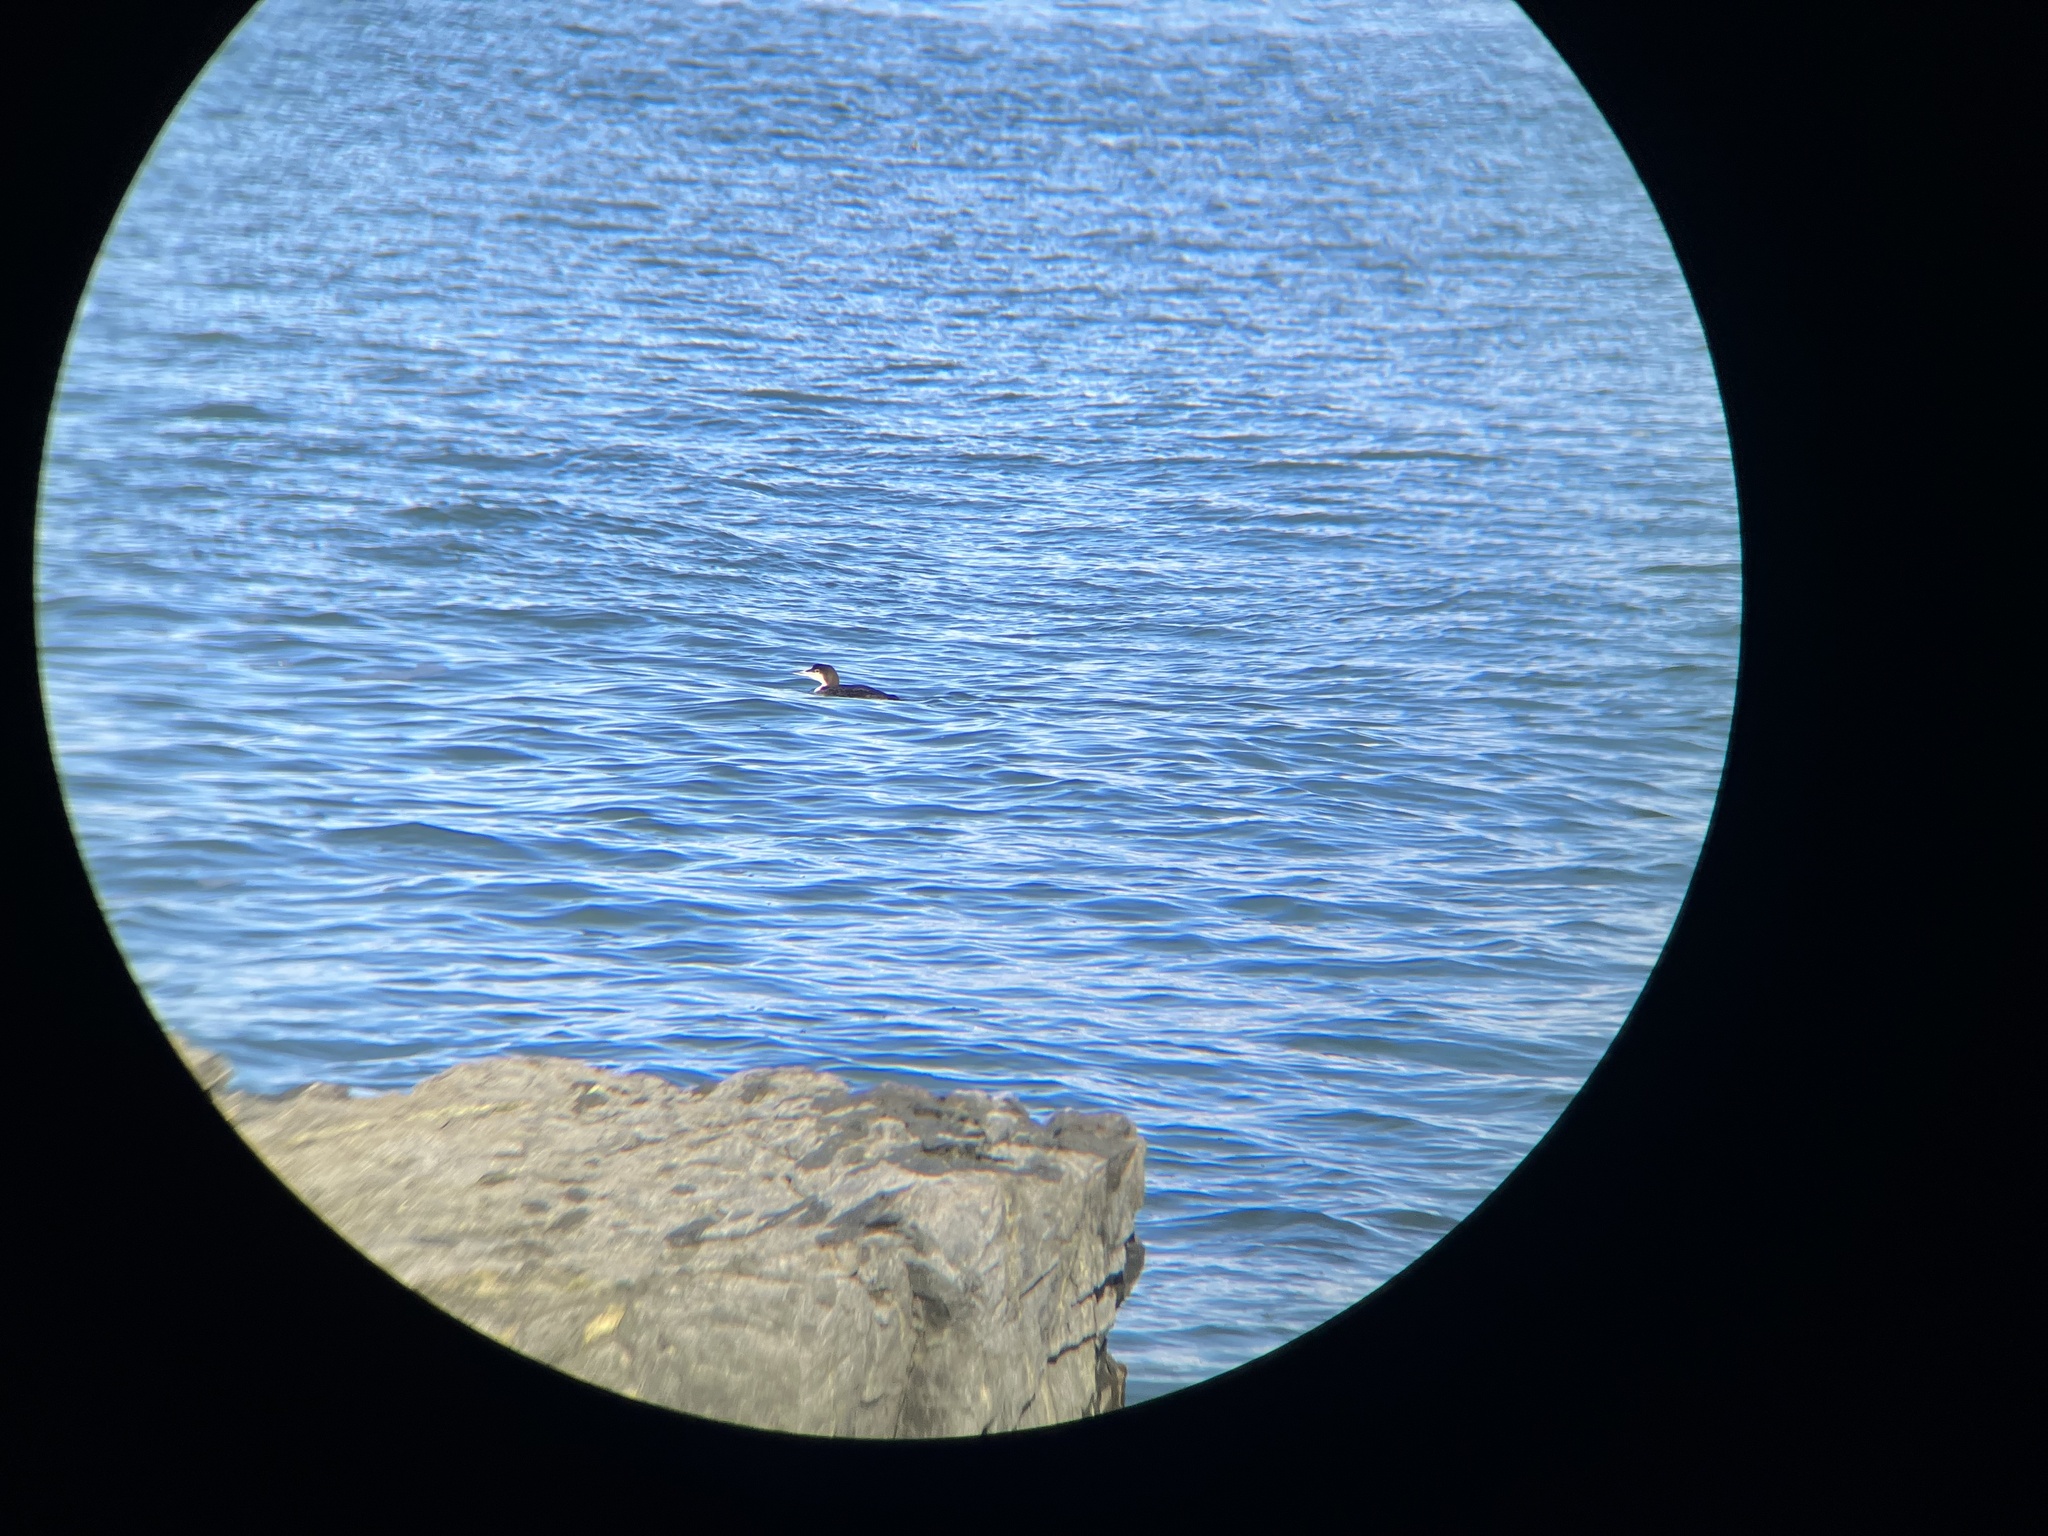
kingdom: Animalia
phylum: Chordata
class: Aves
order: Gaviiformes
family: Gaviidae
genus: Gavia
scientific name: Gavia immer
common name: Common loon
